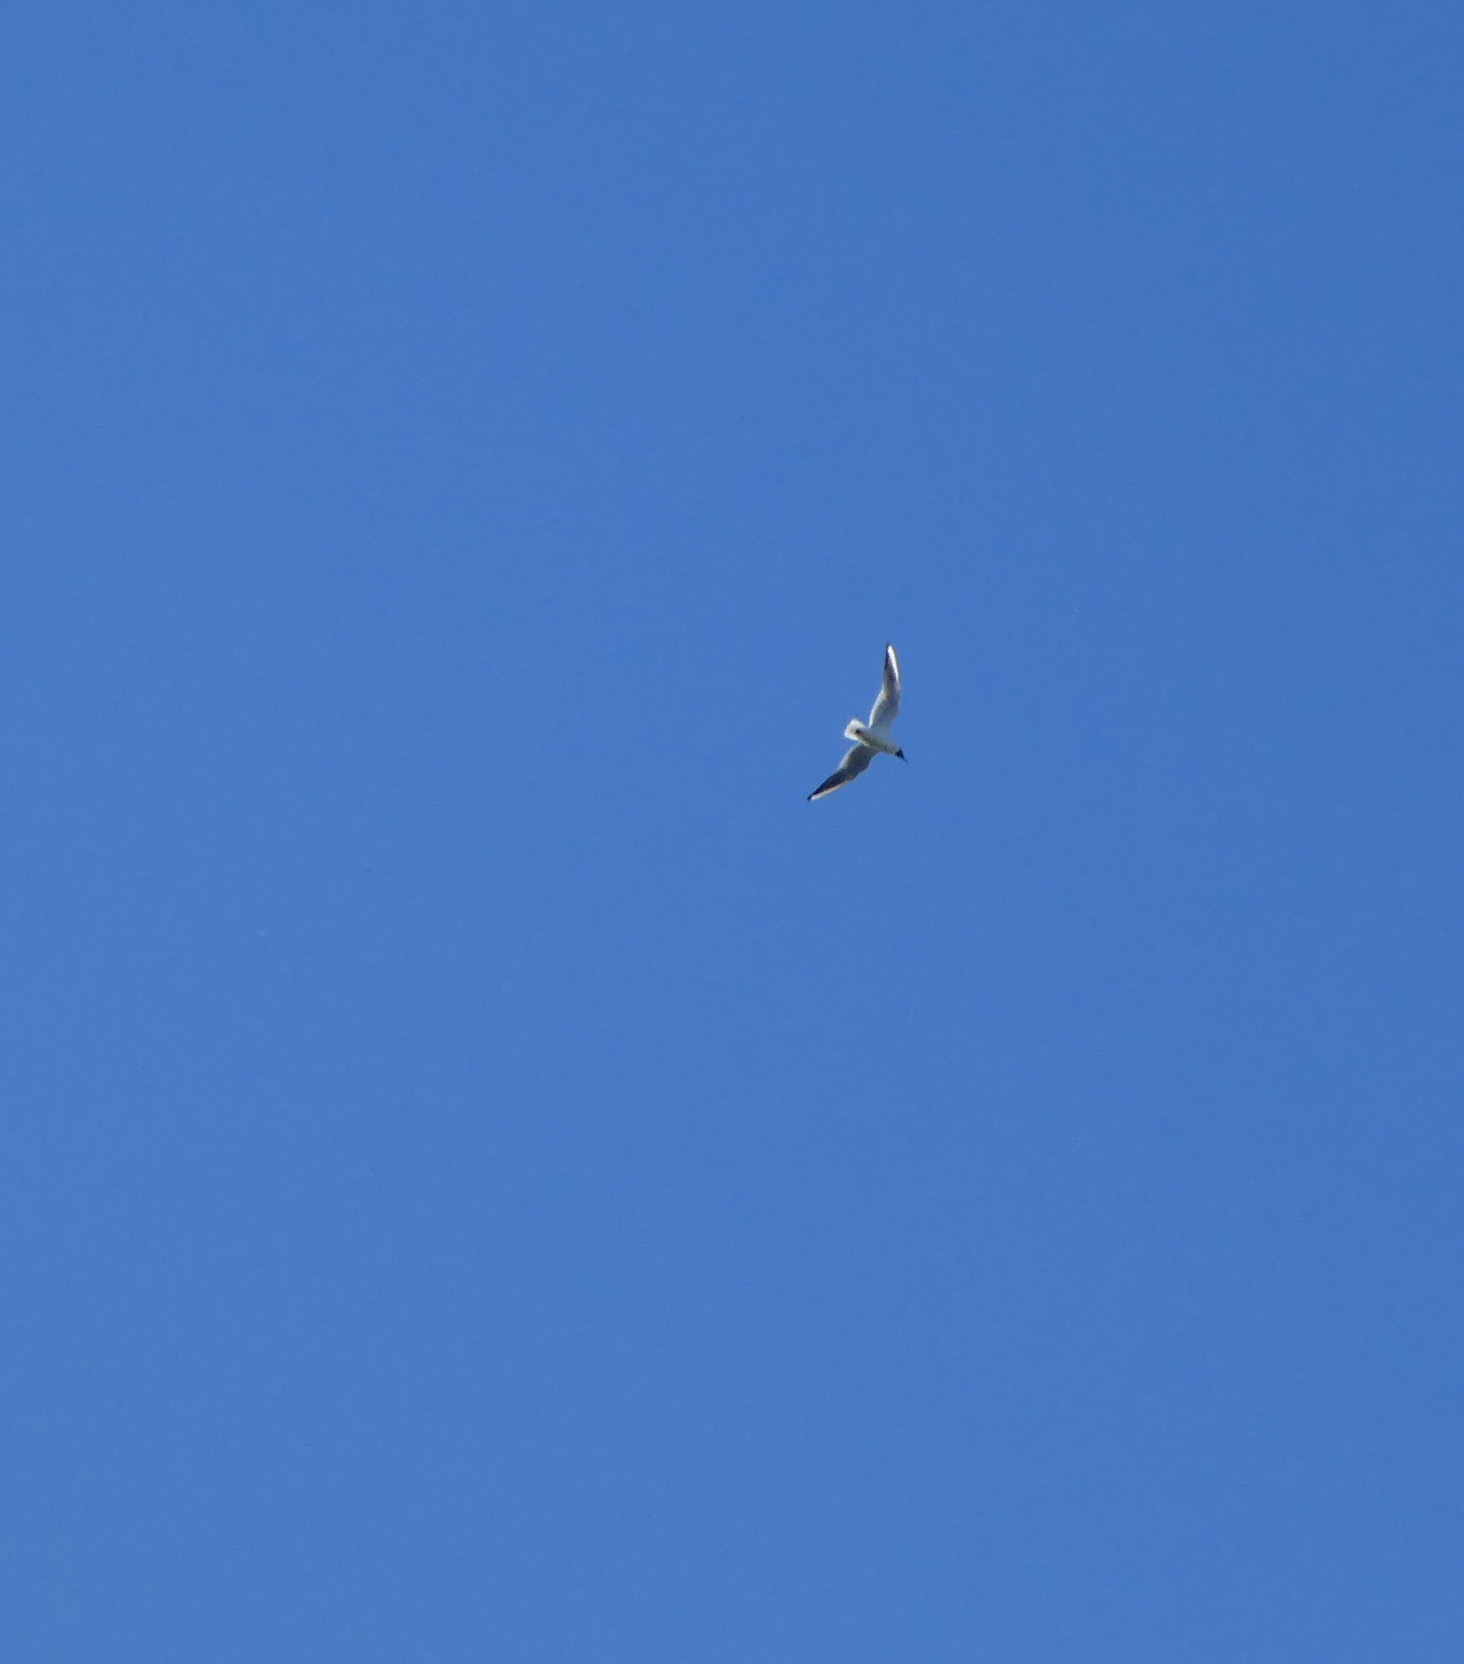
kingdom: Animalia
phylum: Chordata
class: Aves
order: Charadriiformes
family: Laridae
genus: Chroicocephalus
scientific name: Chroicocephalus ridibundus
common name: Black-headed gull
